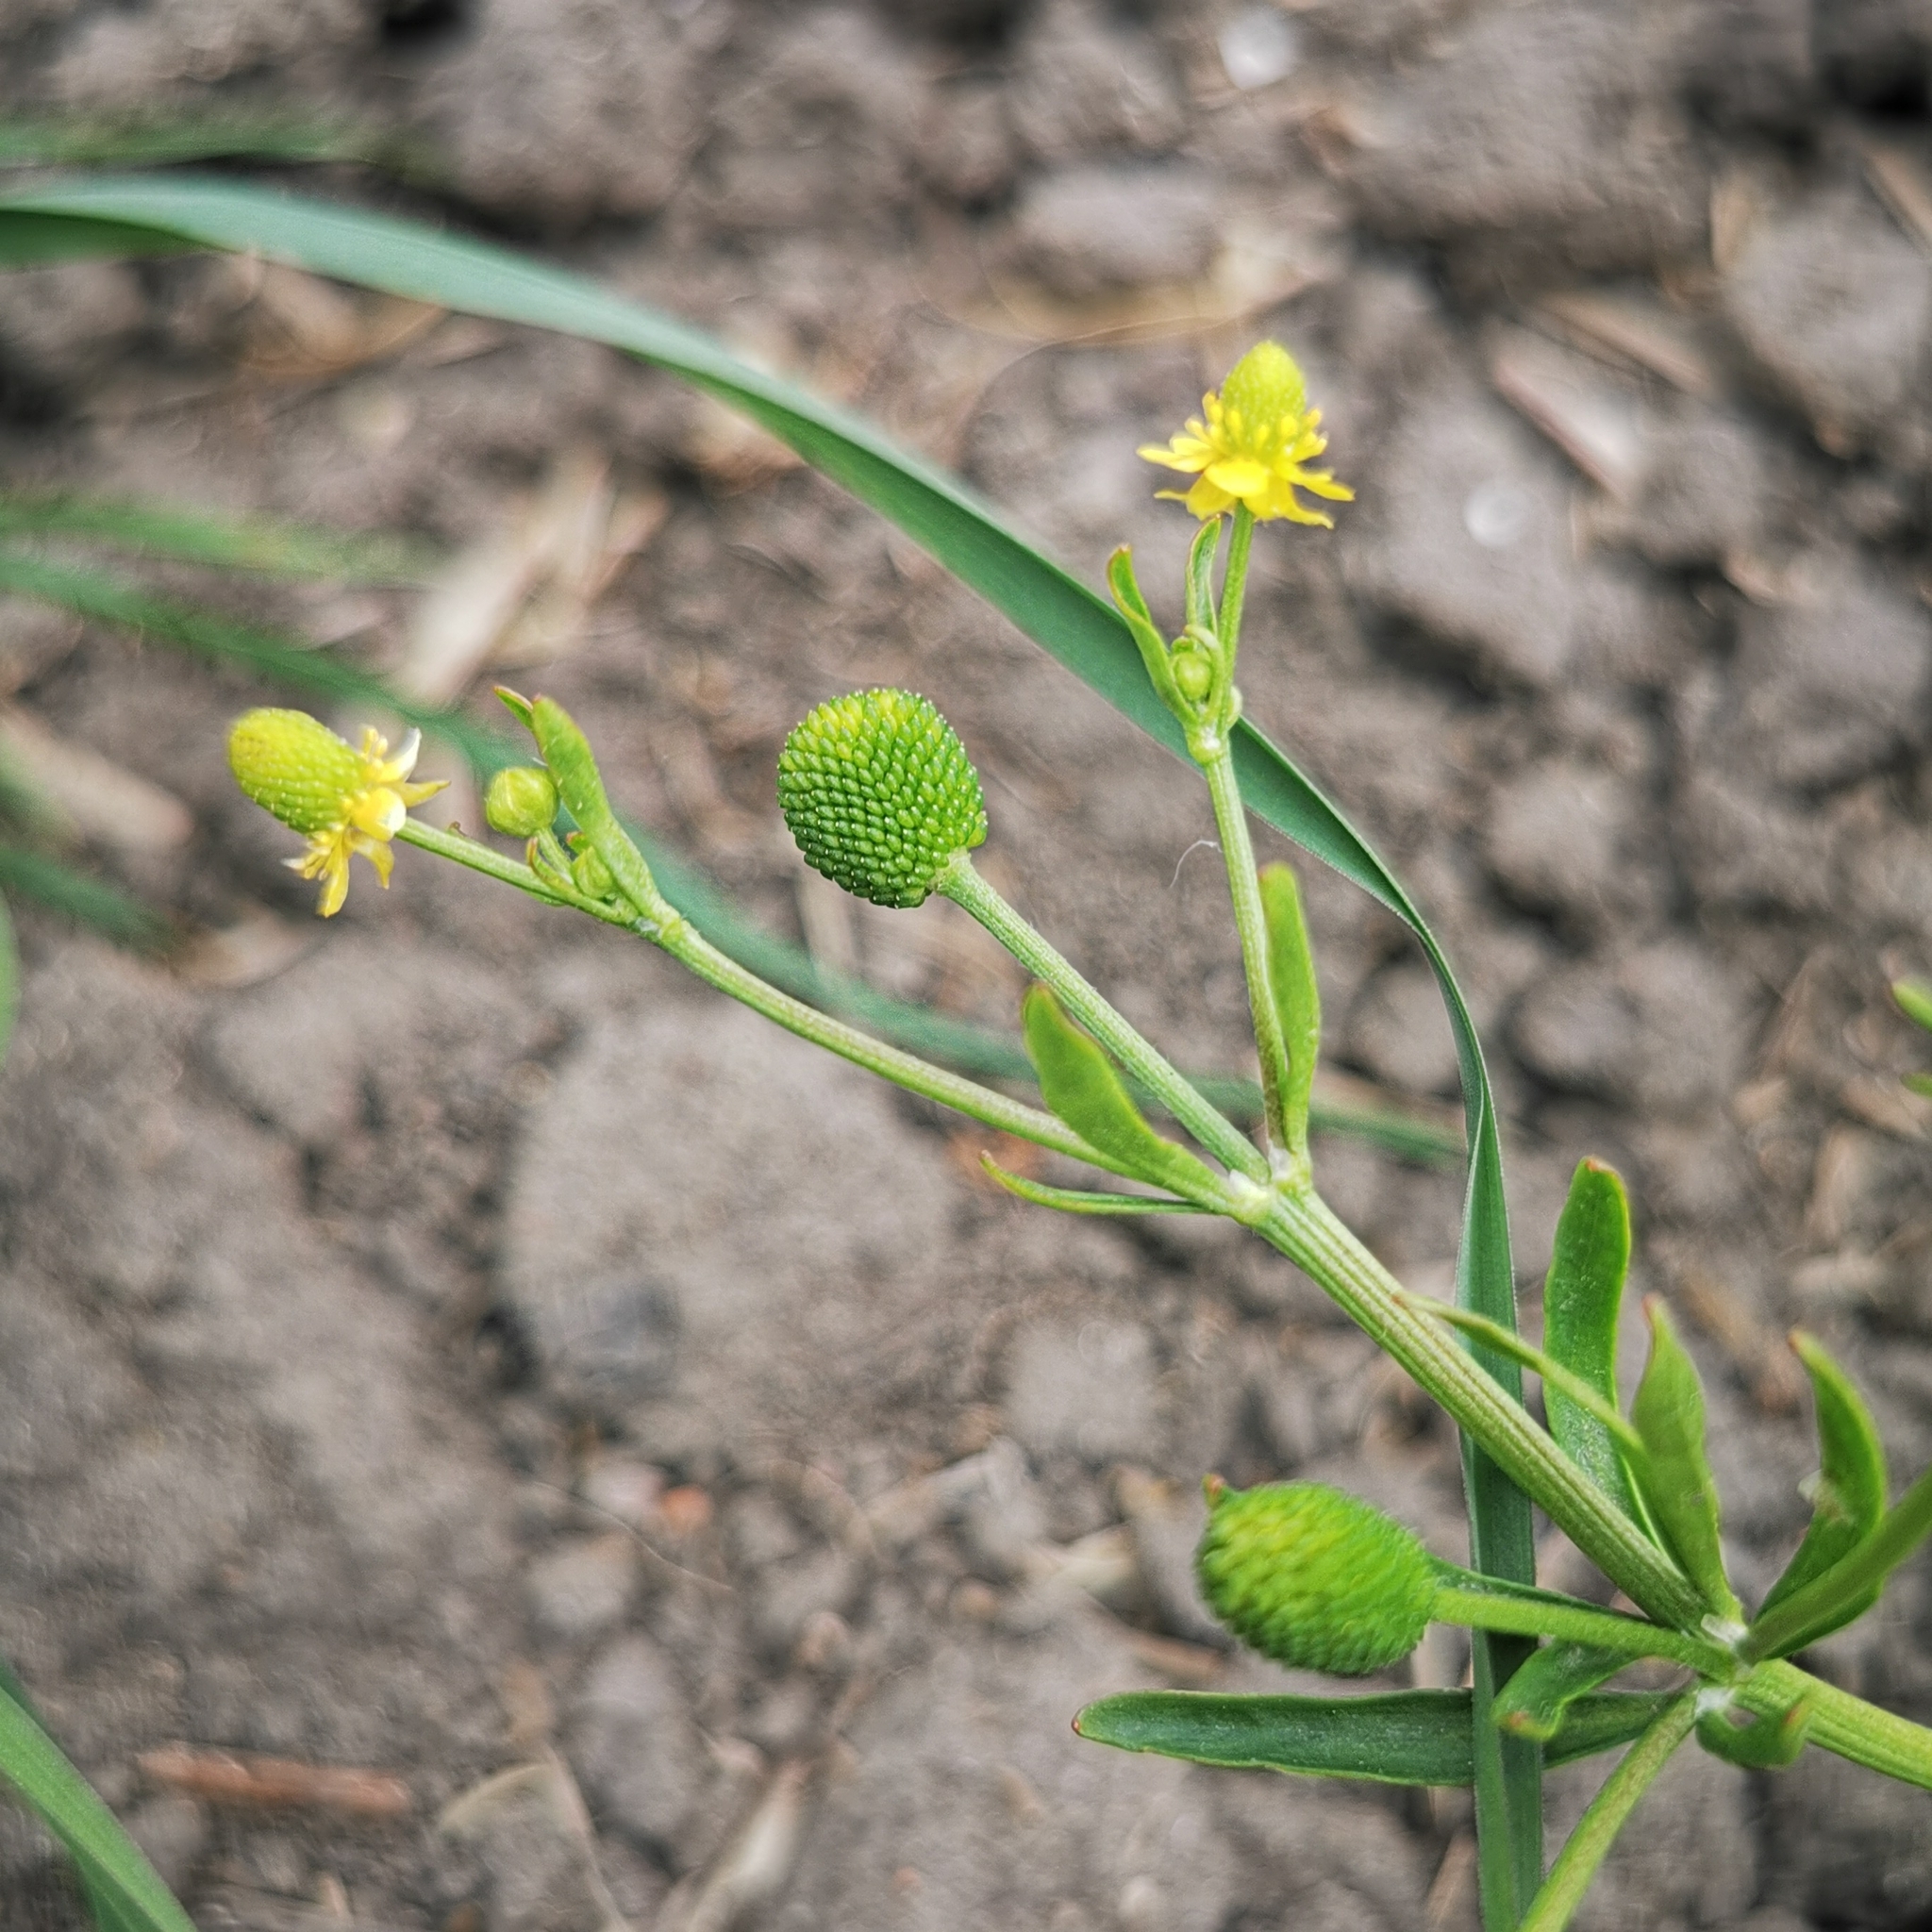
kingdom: Plantae
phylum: Tracheophyta
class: Magnoliopsida
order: Ranunculales
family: Ranunculaceae
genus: Ranunculus
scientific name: Ranunculus sceleratus
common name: Celery-leaved buttercup
